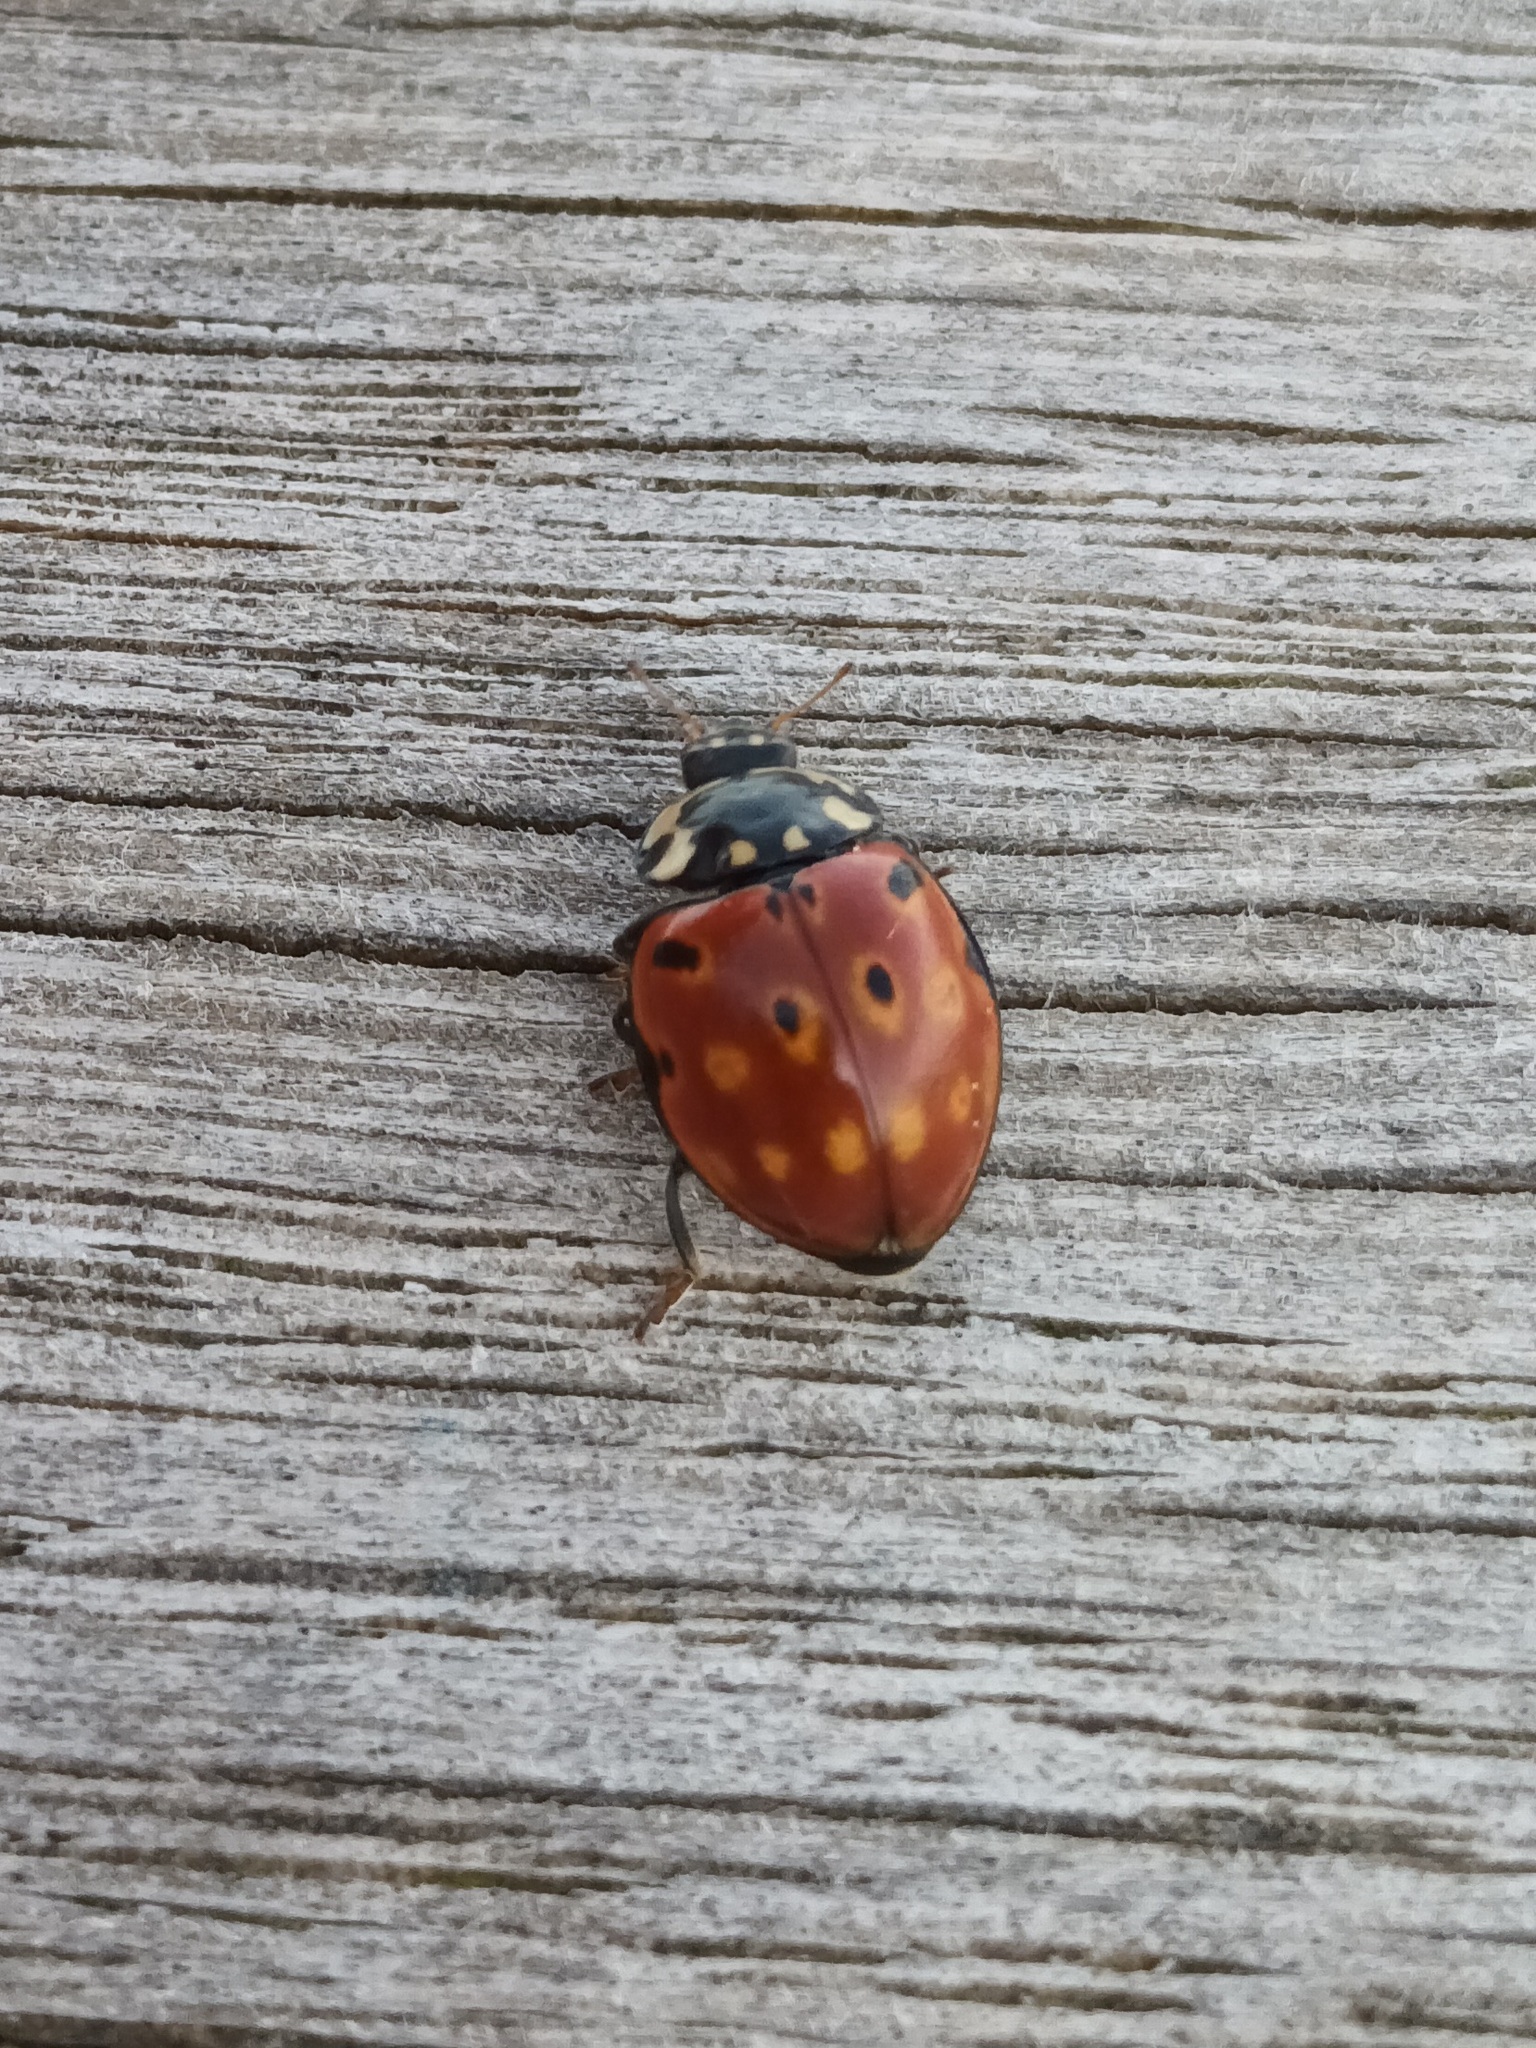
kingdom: Animalia
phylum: Arthropoda
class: Insecta
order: Coleoptera
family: Coccinellidae
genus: Anatis
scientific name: Anatis ocellata
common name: Eyed ladybird
